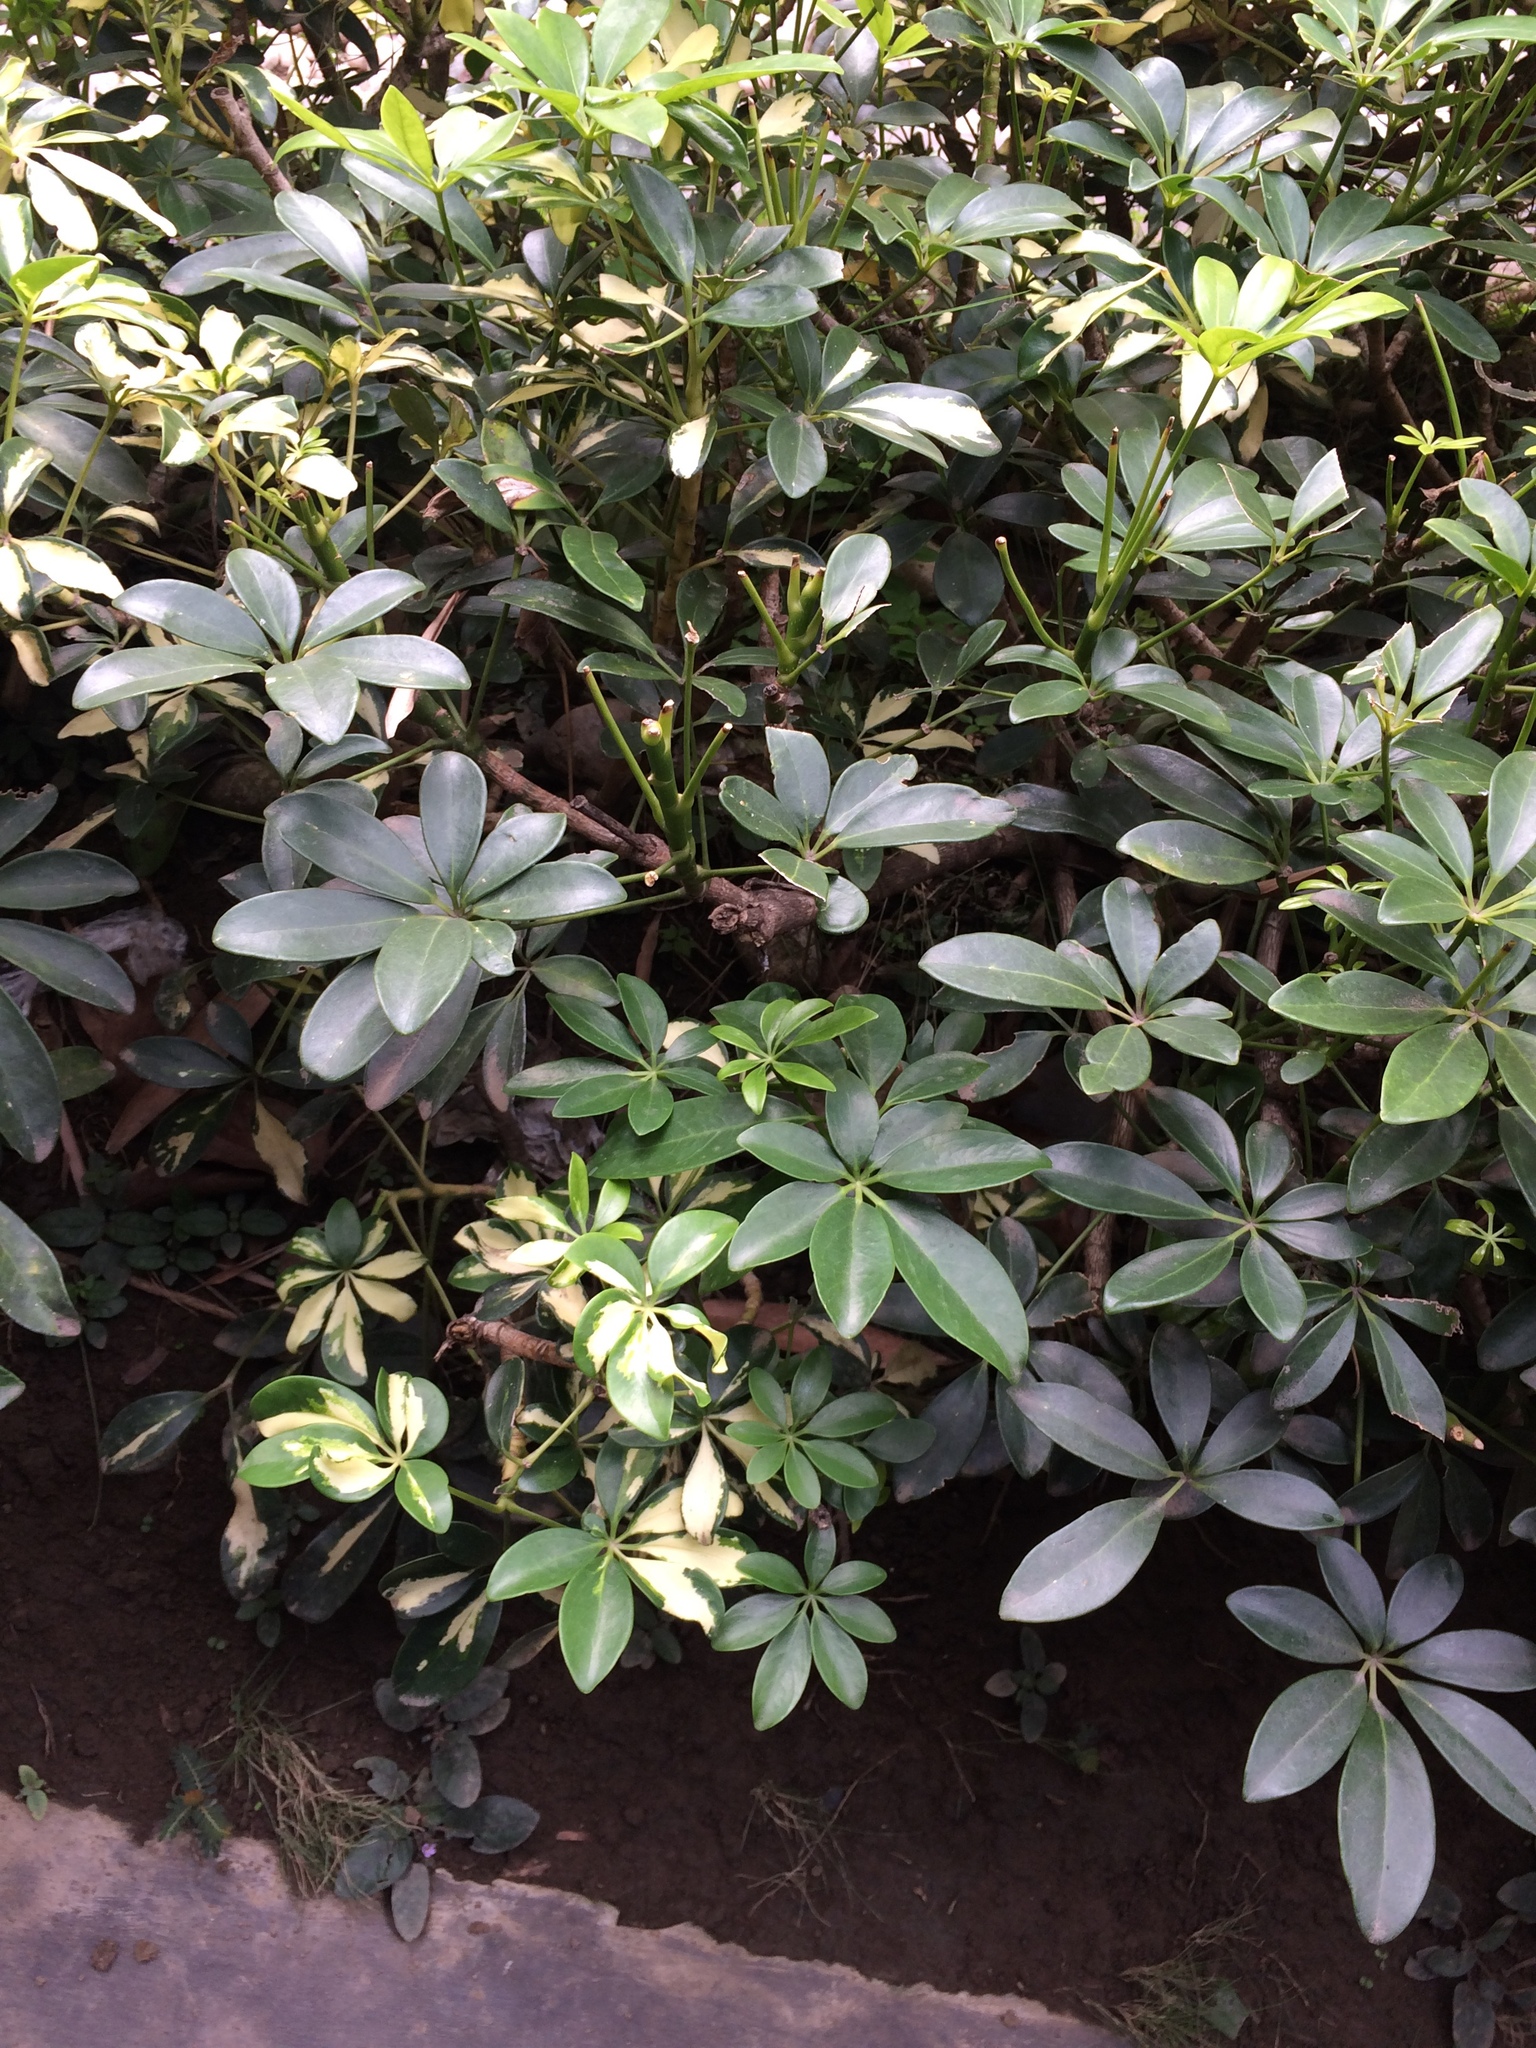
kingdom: Plantae
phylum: Tracheophyta
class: Magnoliopsida
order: Apiales
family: Araliaceae
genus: Heptapleurum
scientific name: Heptapleurum arboricola
